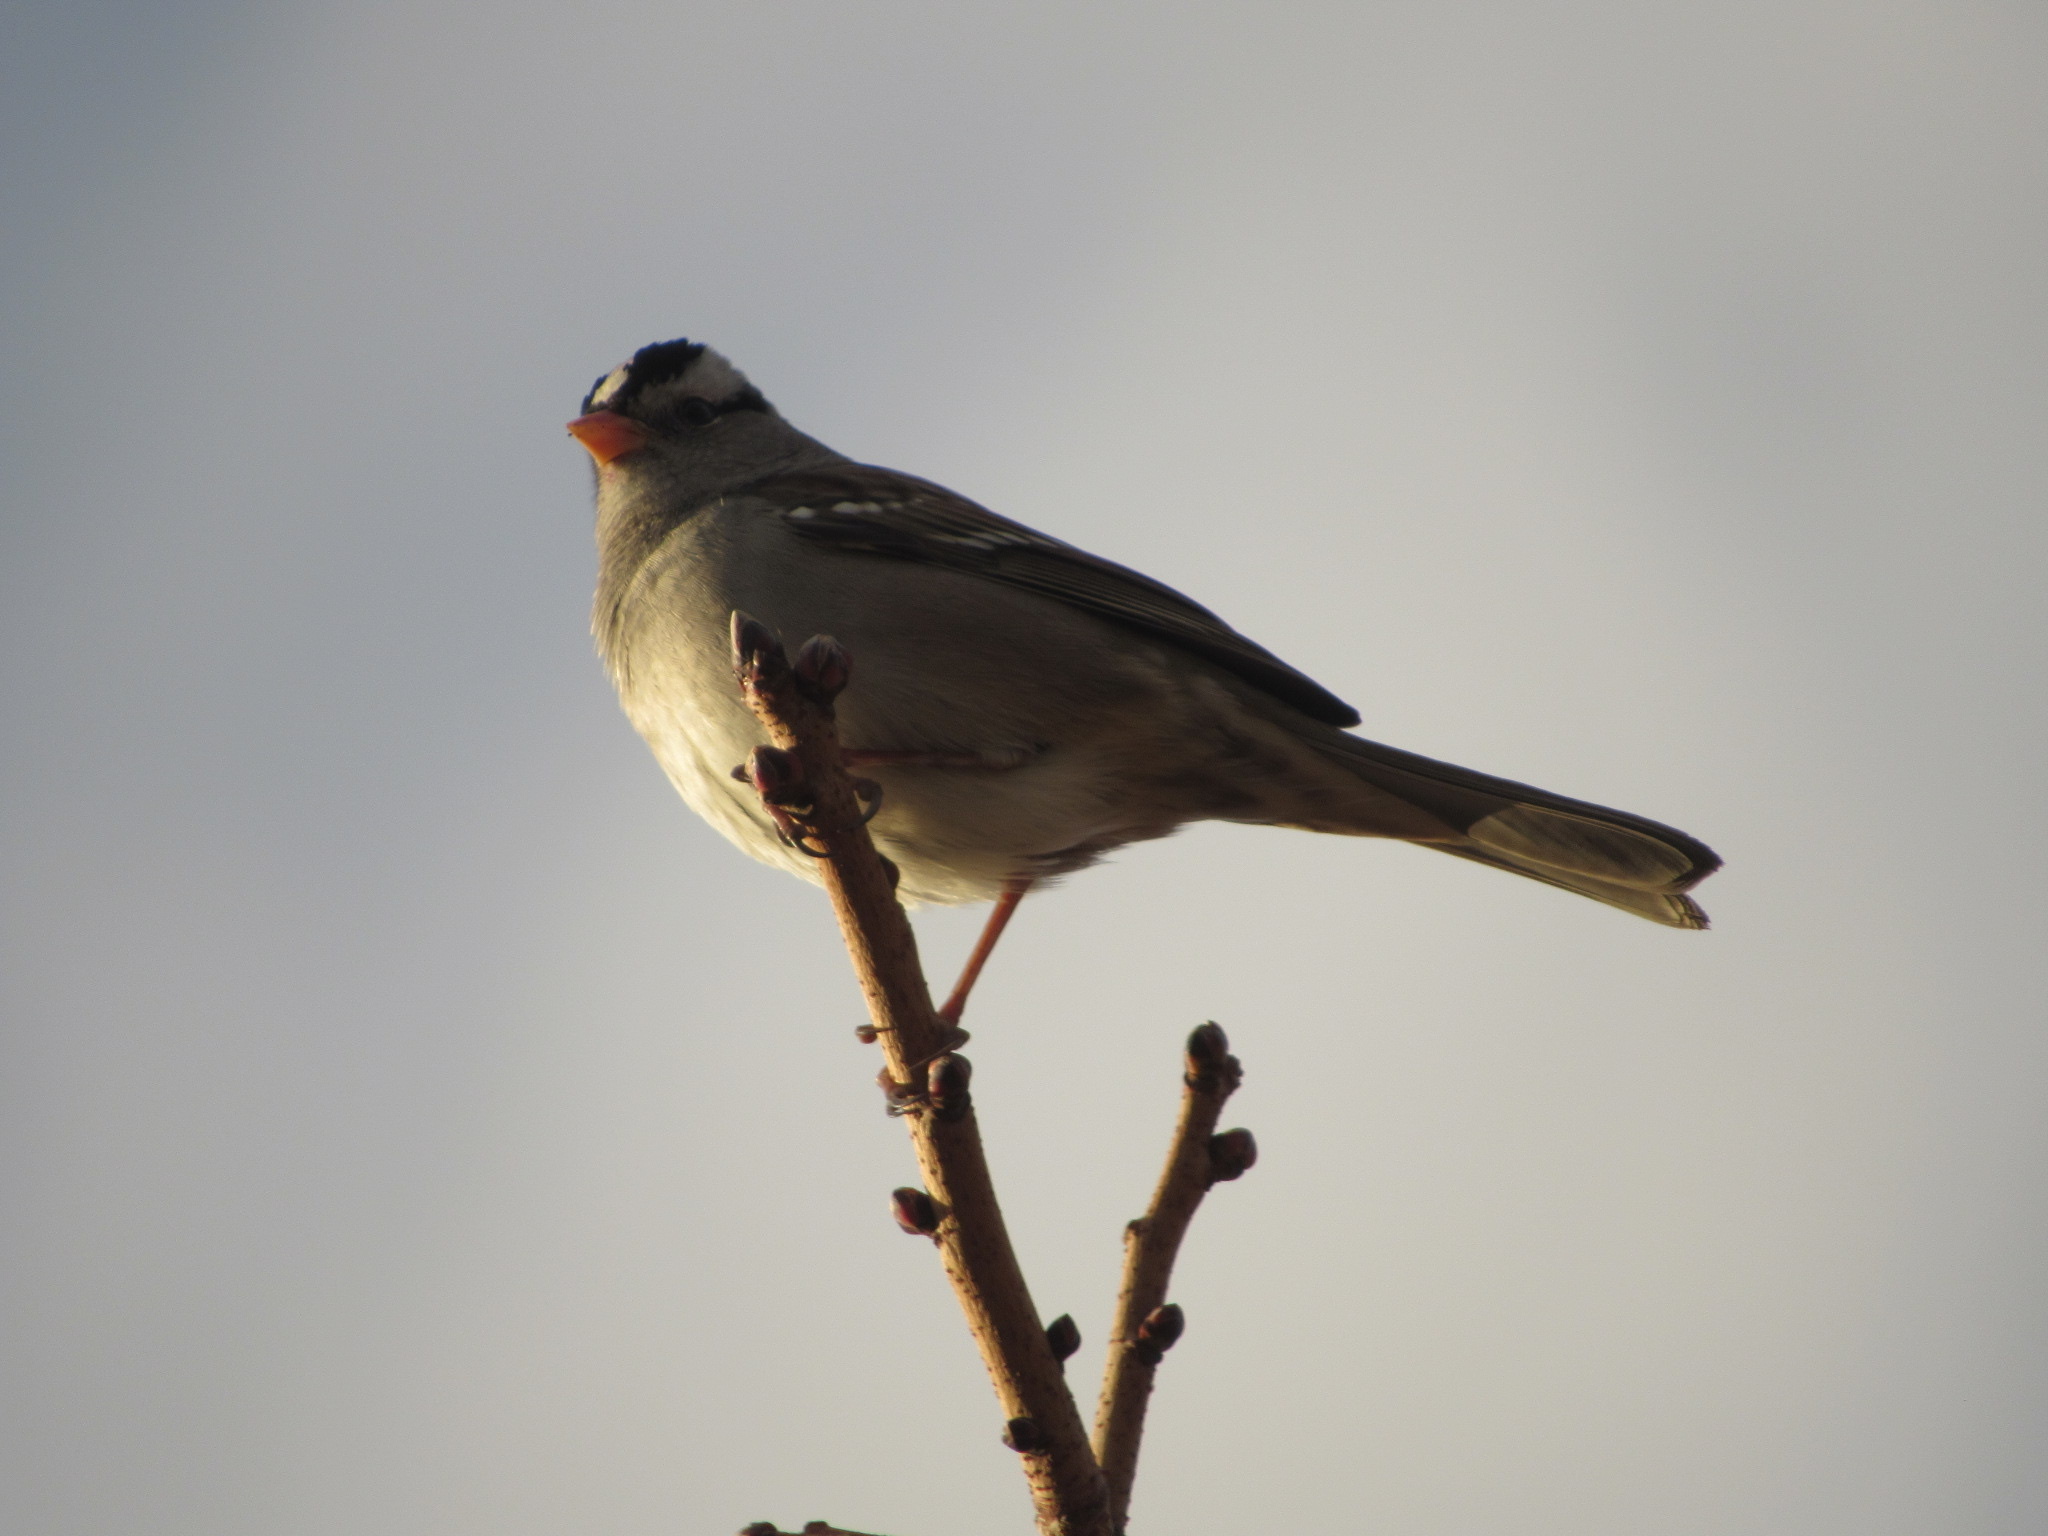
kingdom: Animalia
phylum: Chordata
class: Aves
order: Passeriformes
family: Passerellidae
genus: Zonotrichia
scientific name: Zonotrichia leucophrys
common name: White-crowned sparrow
